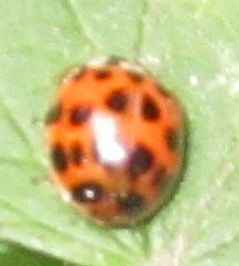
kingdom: Animalia
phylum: Arthropoda
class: Insecta
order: Coleoptera
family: Coccinellidae
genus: Harmonia
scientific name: Harmonia axyridis
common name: Harlequin ladybird
